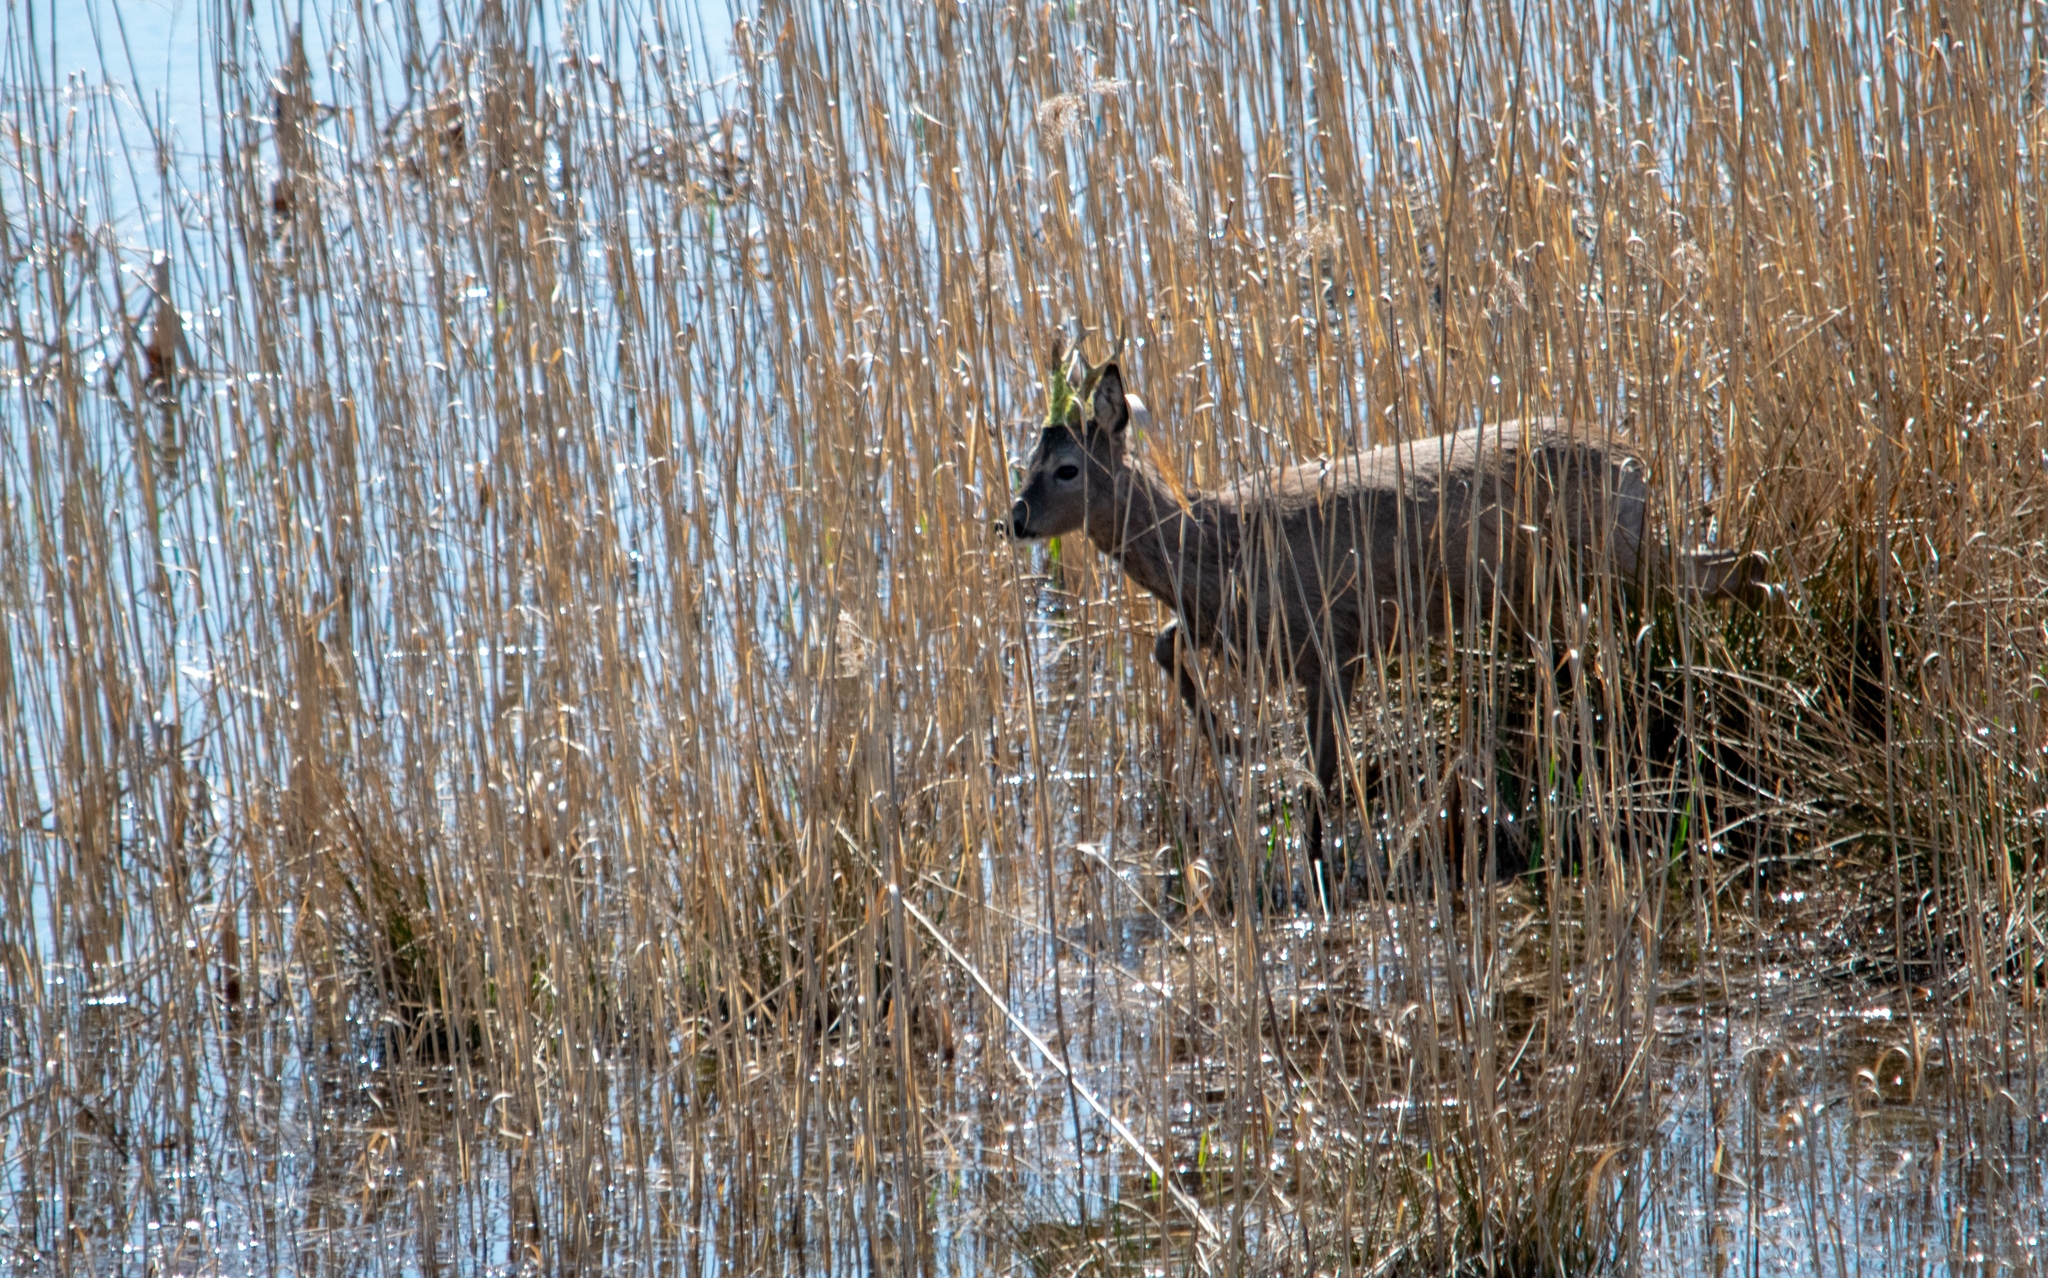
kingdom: Animalia
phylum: Chordata
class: Mammalia
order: Artiodactyla
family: Cervidae
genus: Capreolus
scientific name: Capreolus capreolus
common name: Western roe deer
